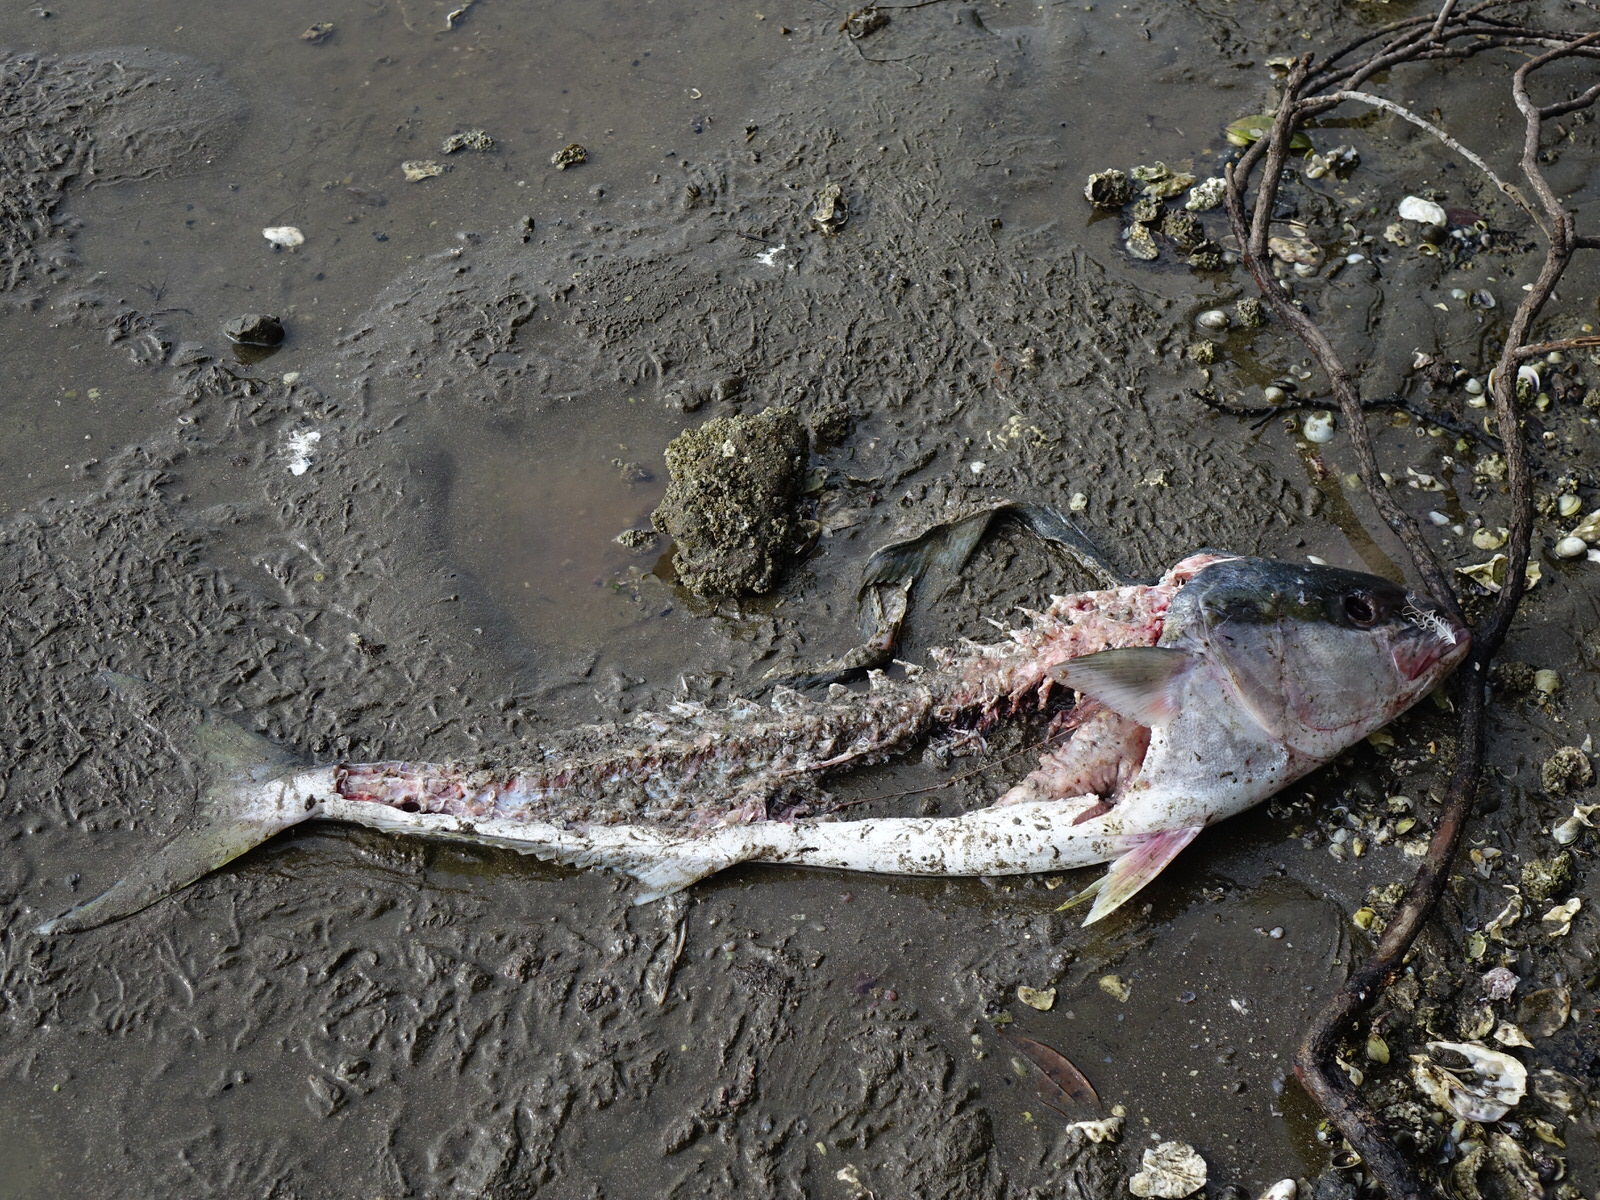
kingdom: Animalia
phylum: Chordata
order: Perciformes
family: Carangidae
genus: Seriola
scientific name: Seriola lalandi
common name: Yellowtail kingfish
